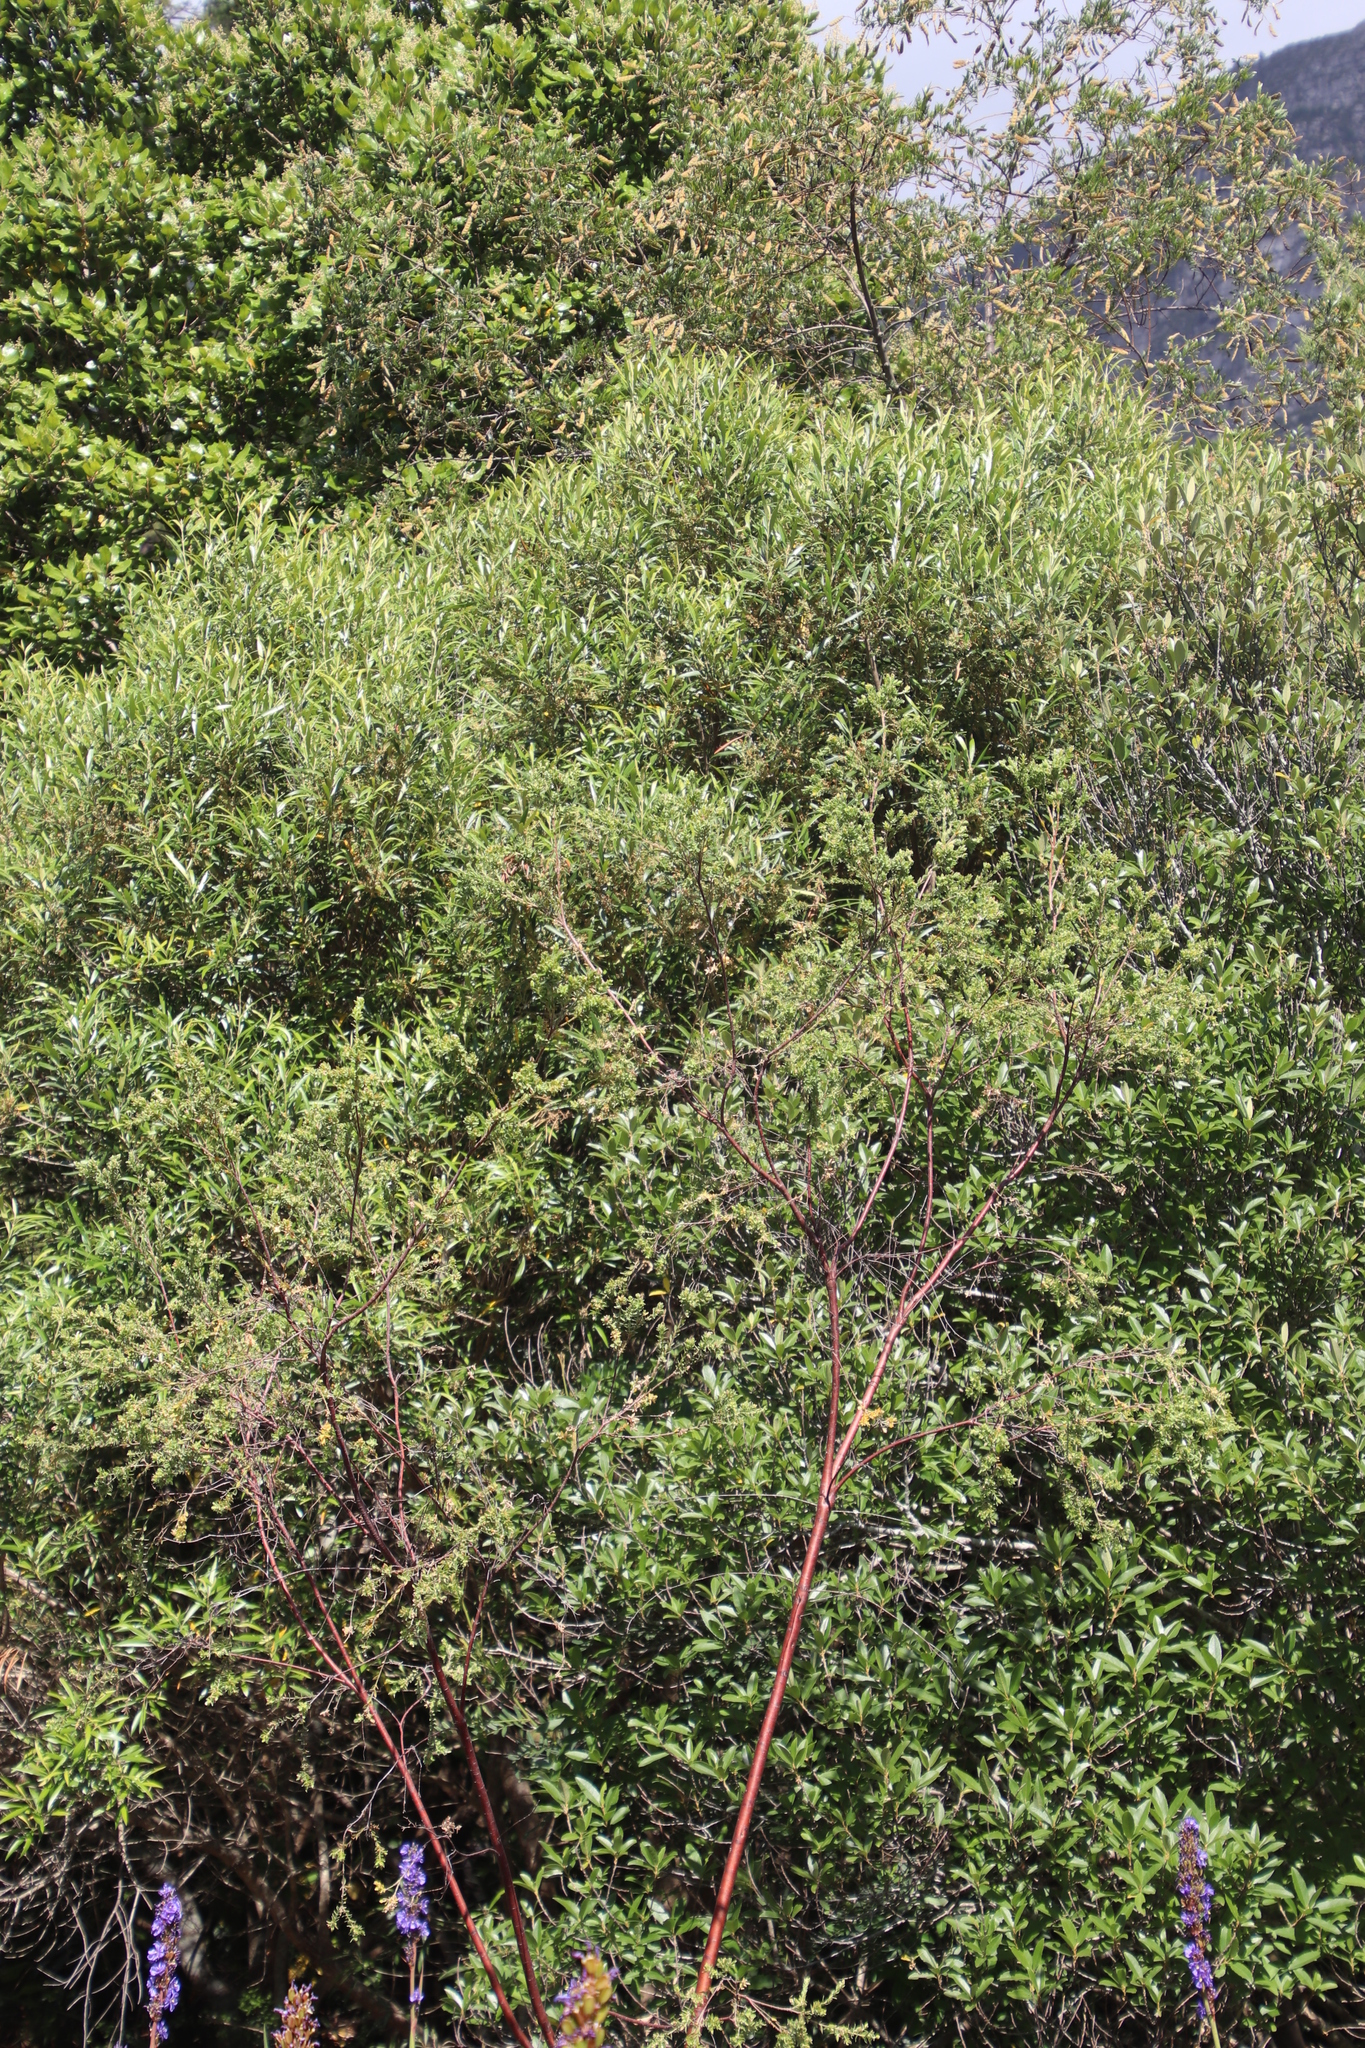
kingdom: Plantae
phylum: Tracheophyta
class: Magnoliopsida
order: Malvales
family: Thymelaeaceae
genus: Gnidia
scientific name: Gnidia sericea
